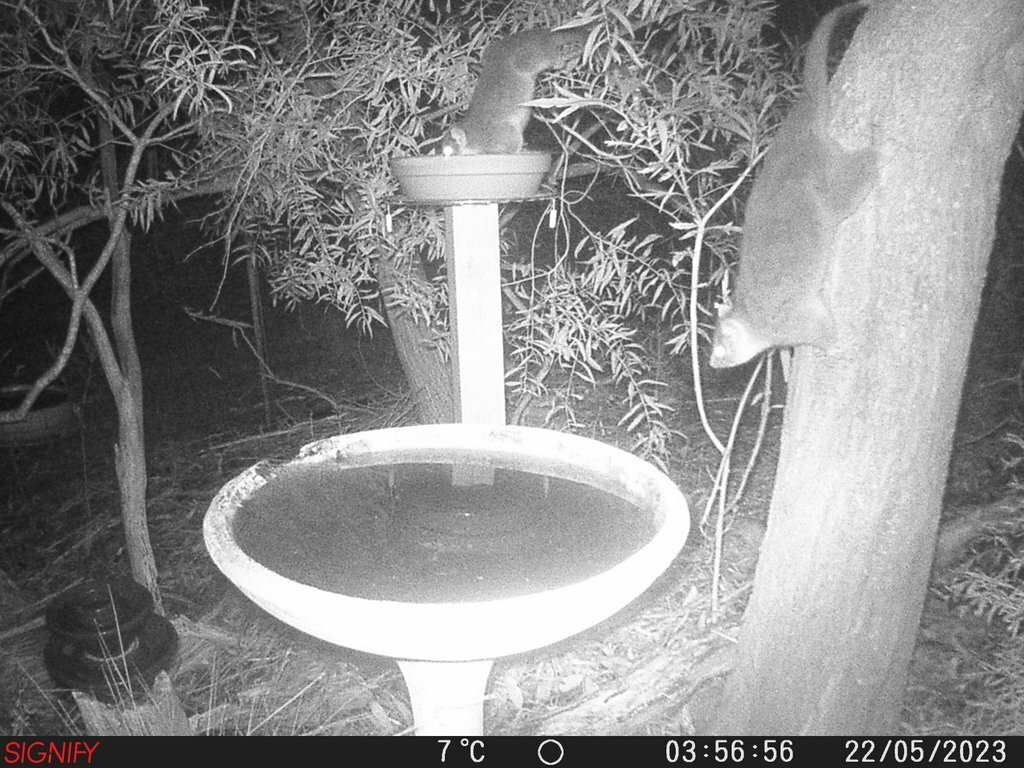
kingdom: Animalia
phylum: Chordata
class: Mammalia
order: Diprotodontia
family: Pseudocheiridae
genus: Pseudocheirus
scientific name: Pseudocheirus peregrinus
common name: Common ringtail possum
